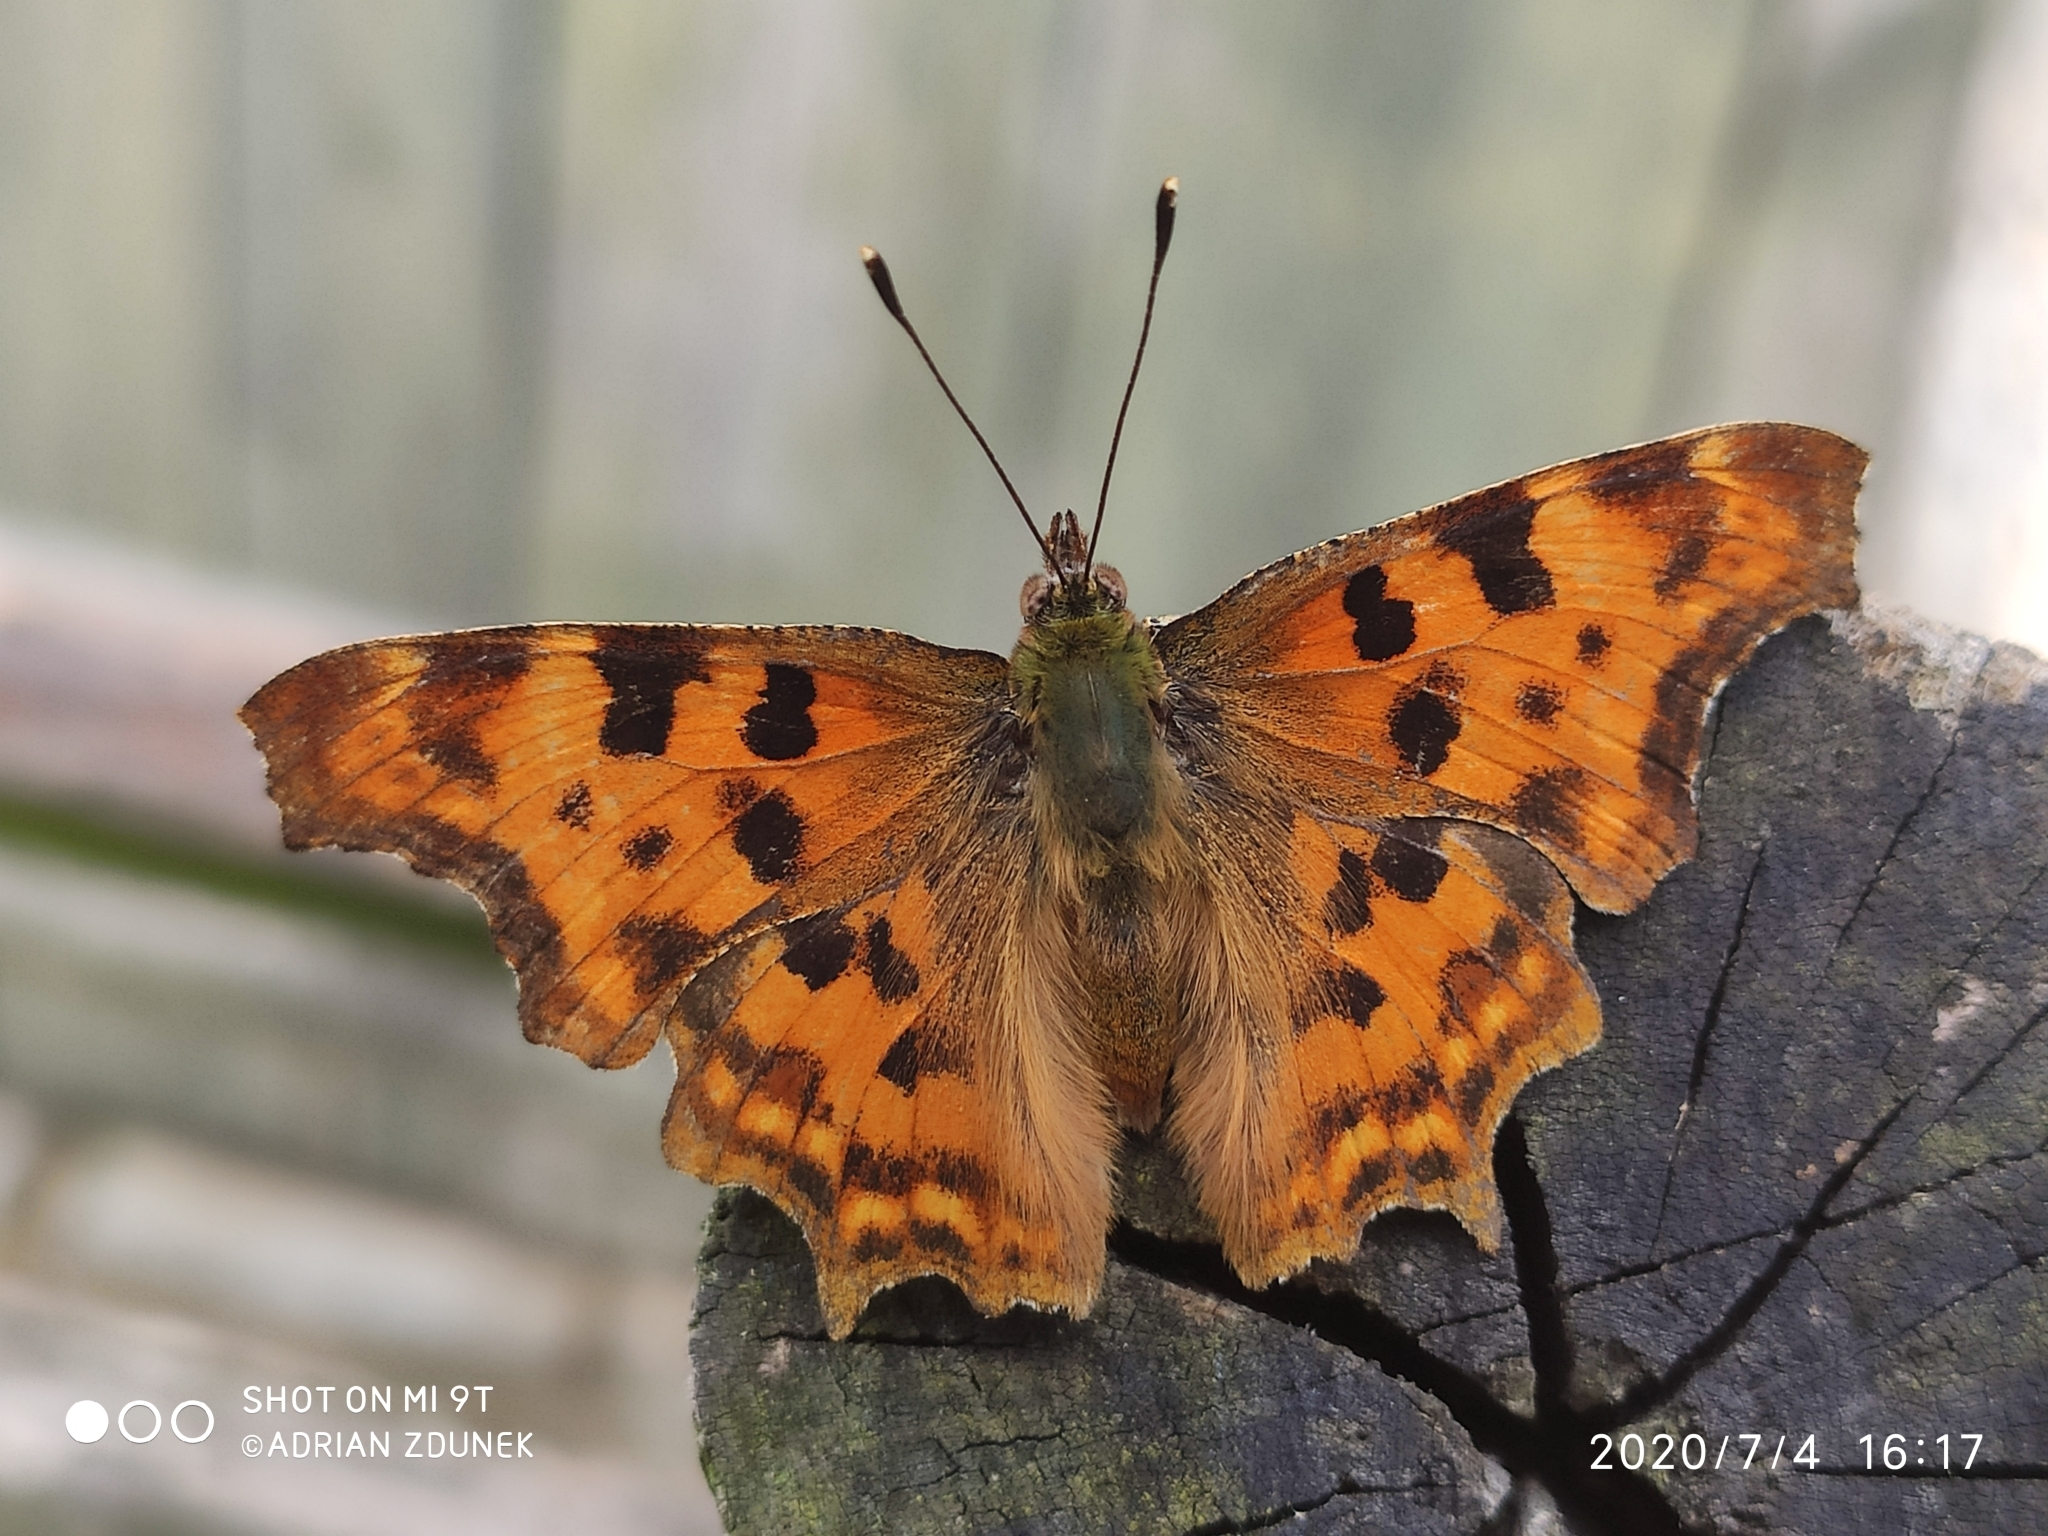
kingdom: Animalia
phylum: Arthropoda
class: Insecta
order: Lepidoptera
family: Nymphalidae
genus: Polygonia
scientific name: Polygonia c-album
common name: Comma
